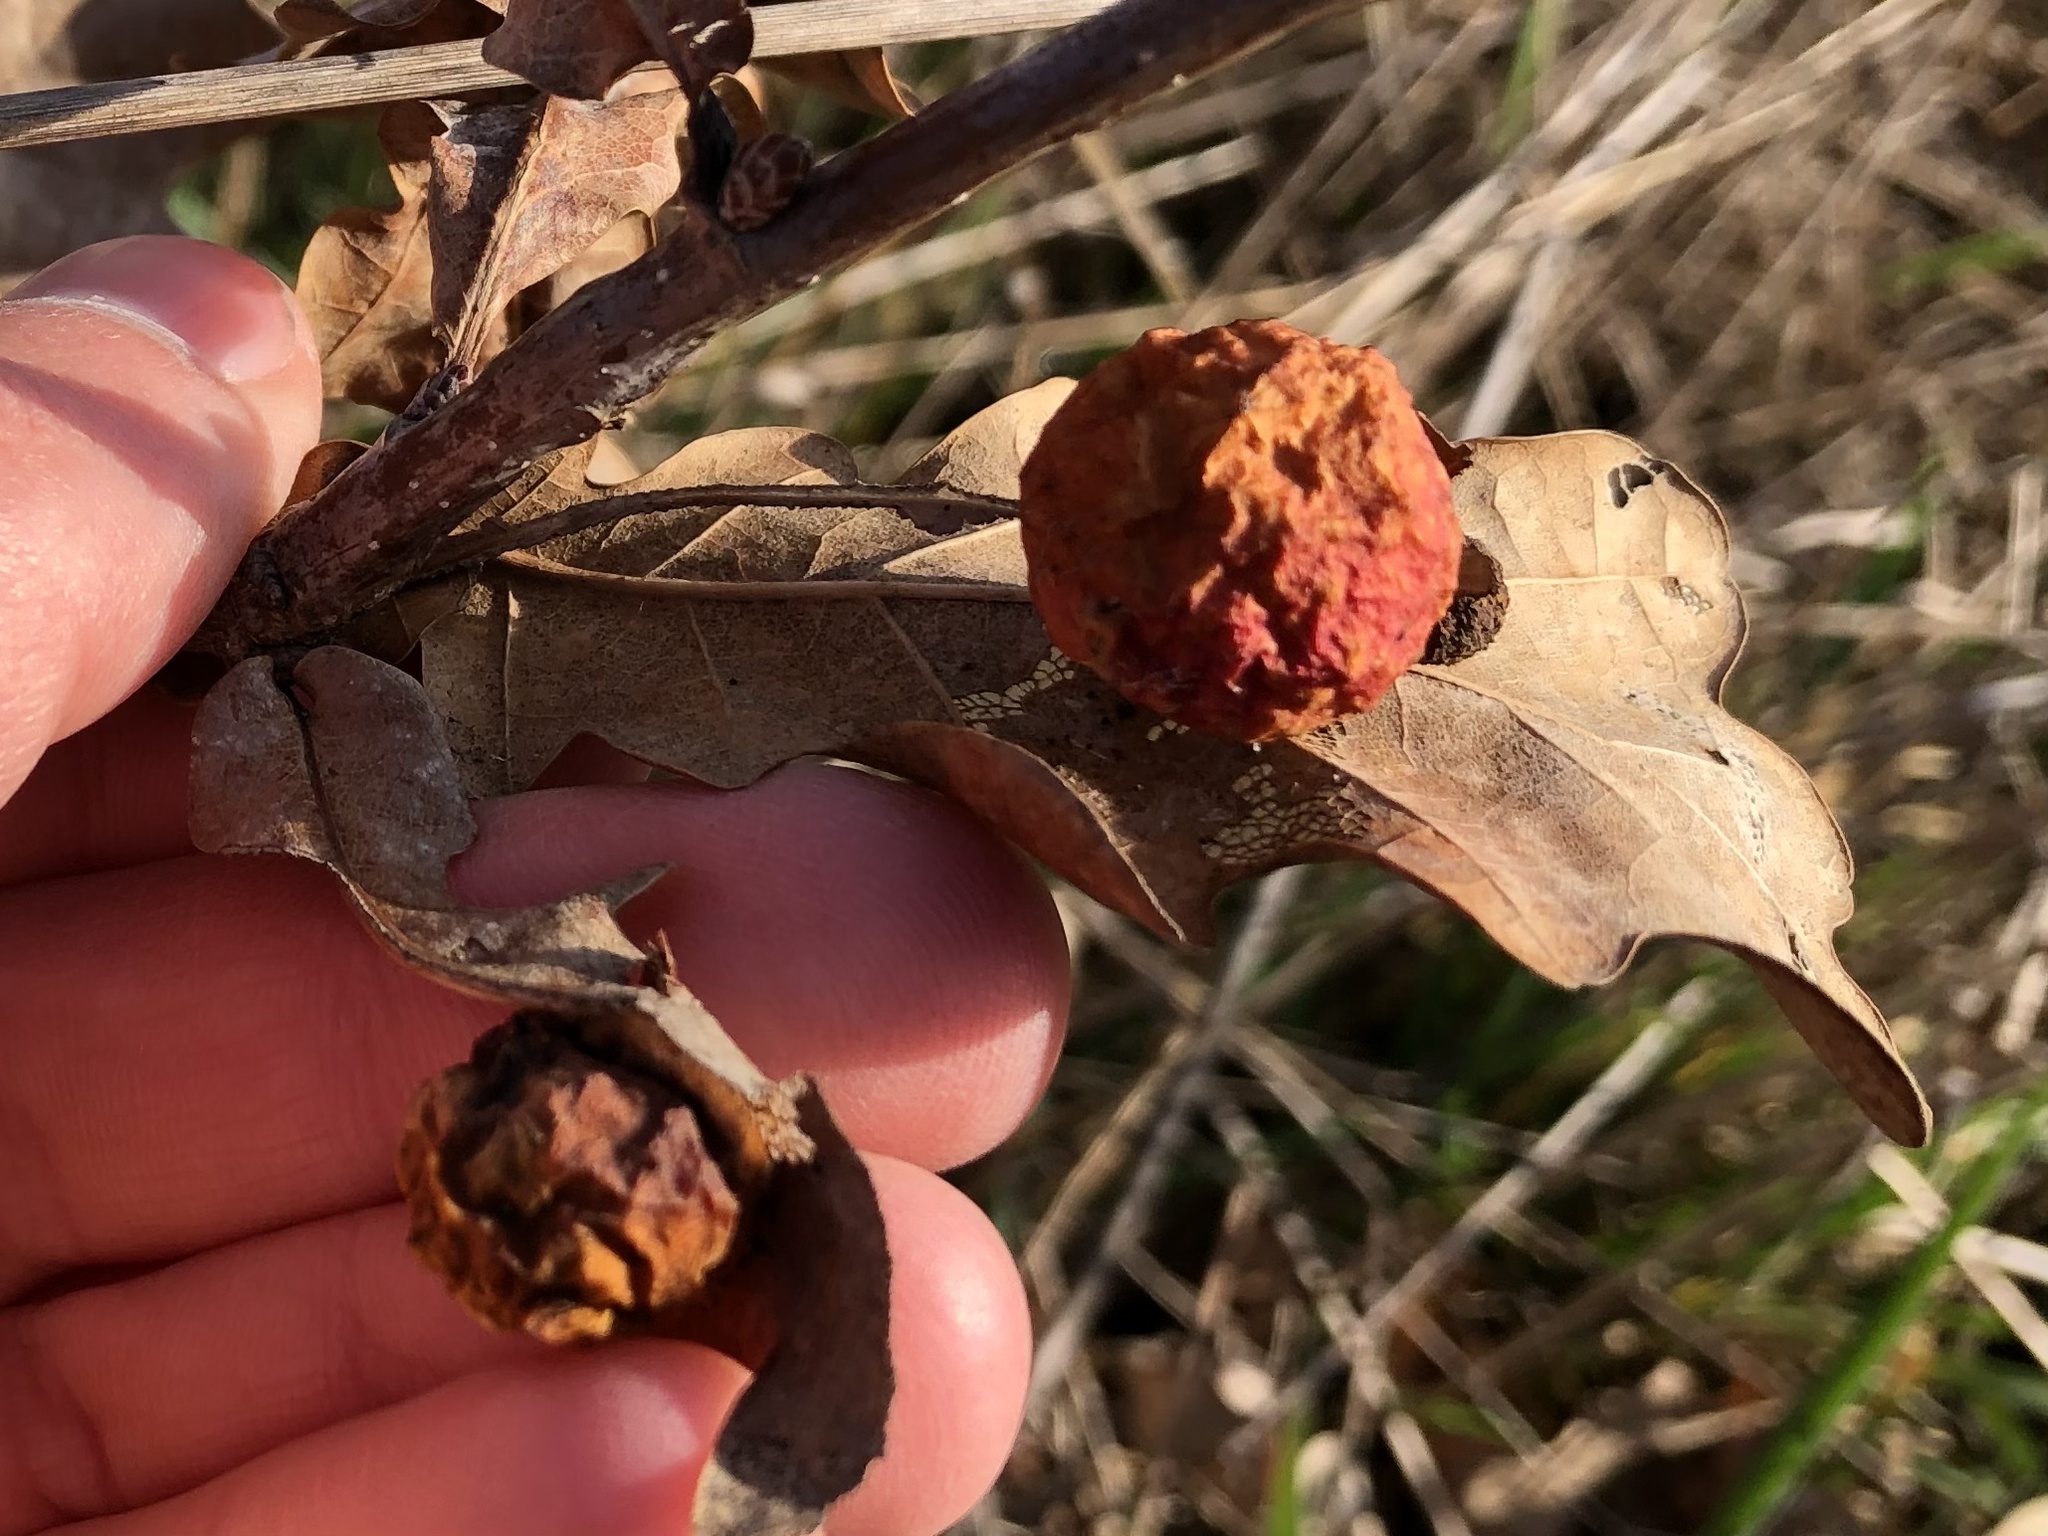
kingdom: Animalia
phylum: Arthropoda
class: Insecta
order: Hymenoptera
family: Cynipidae
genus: Cynips
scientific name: Cynips quercusfolii
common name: Cherry gall
